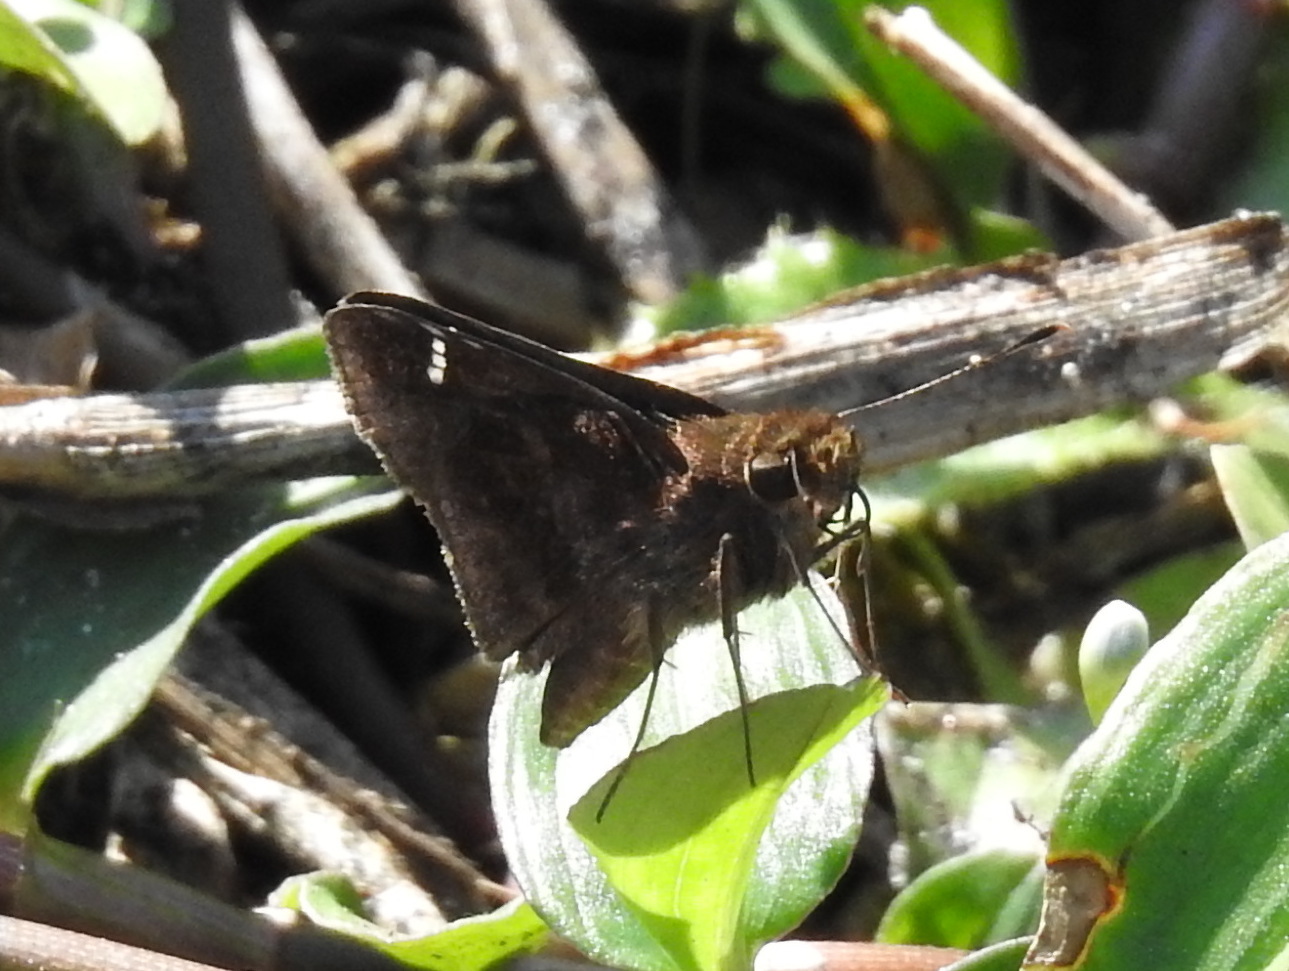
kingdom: Animalia
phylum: Arthropoda
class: Insecta
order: Lepidoptera
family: Hesperiidae
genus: Lerema
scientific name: Lerema accius
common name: Clouded skipper
